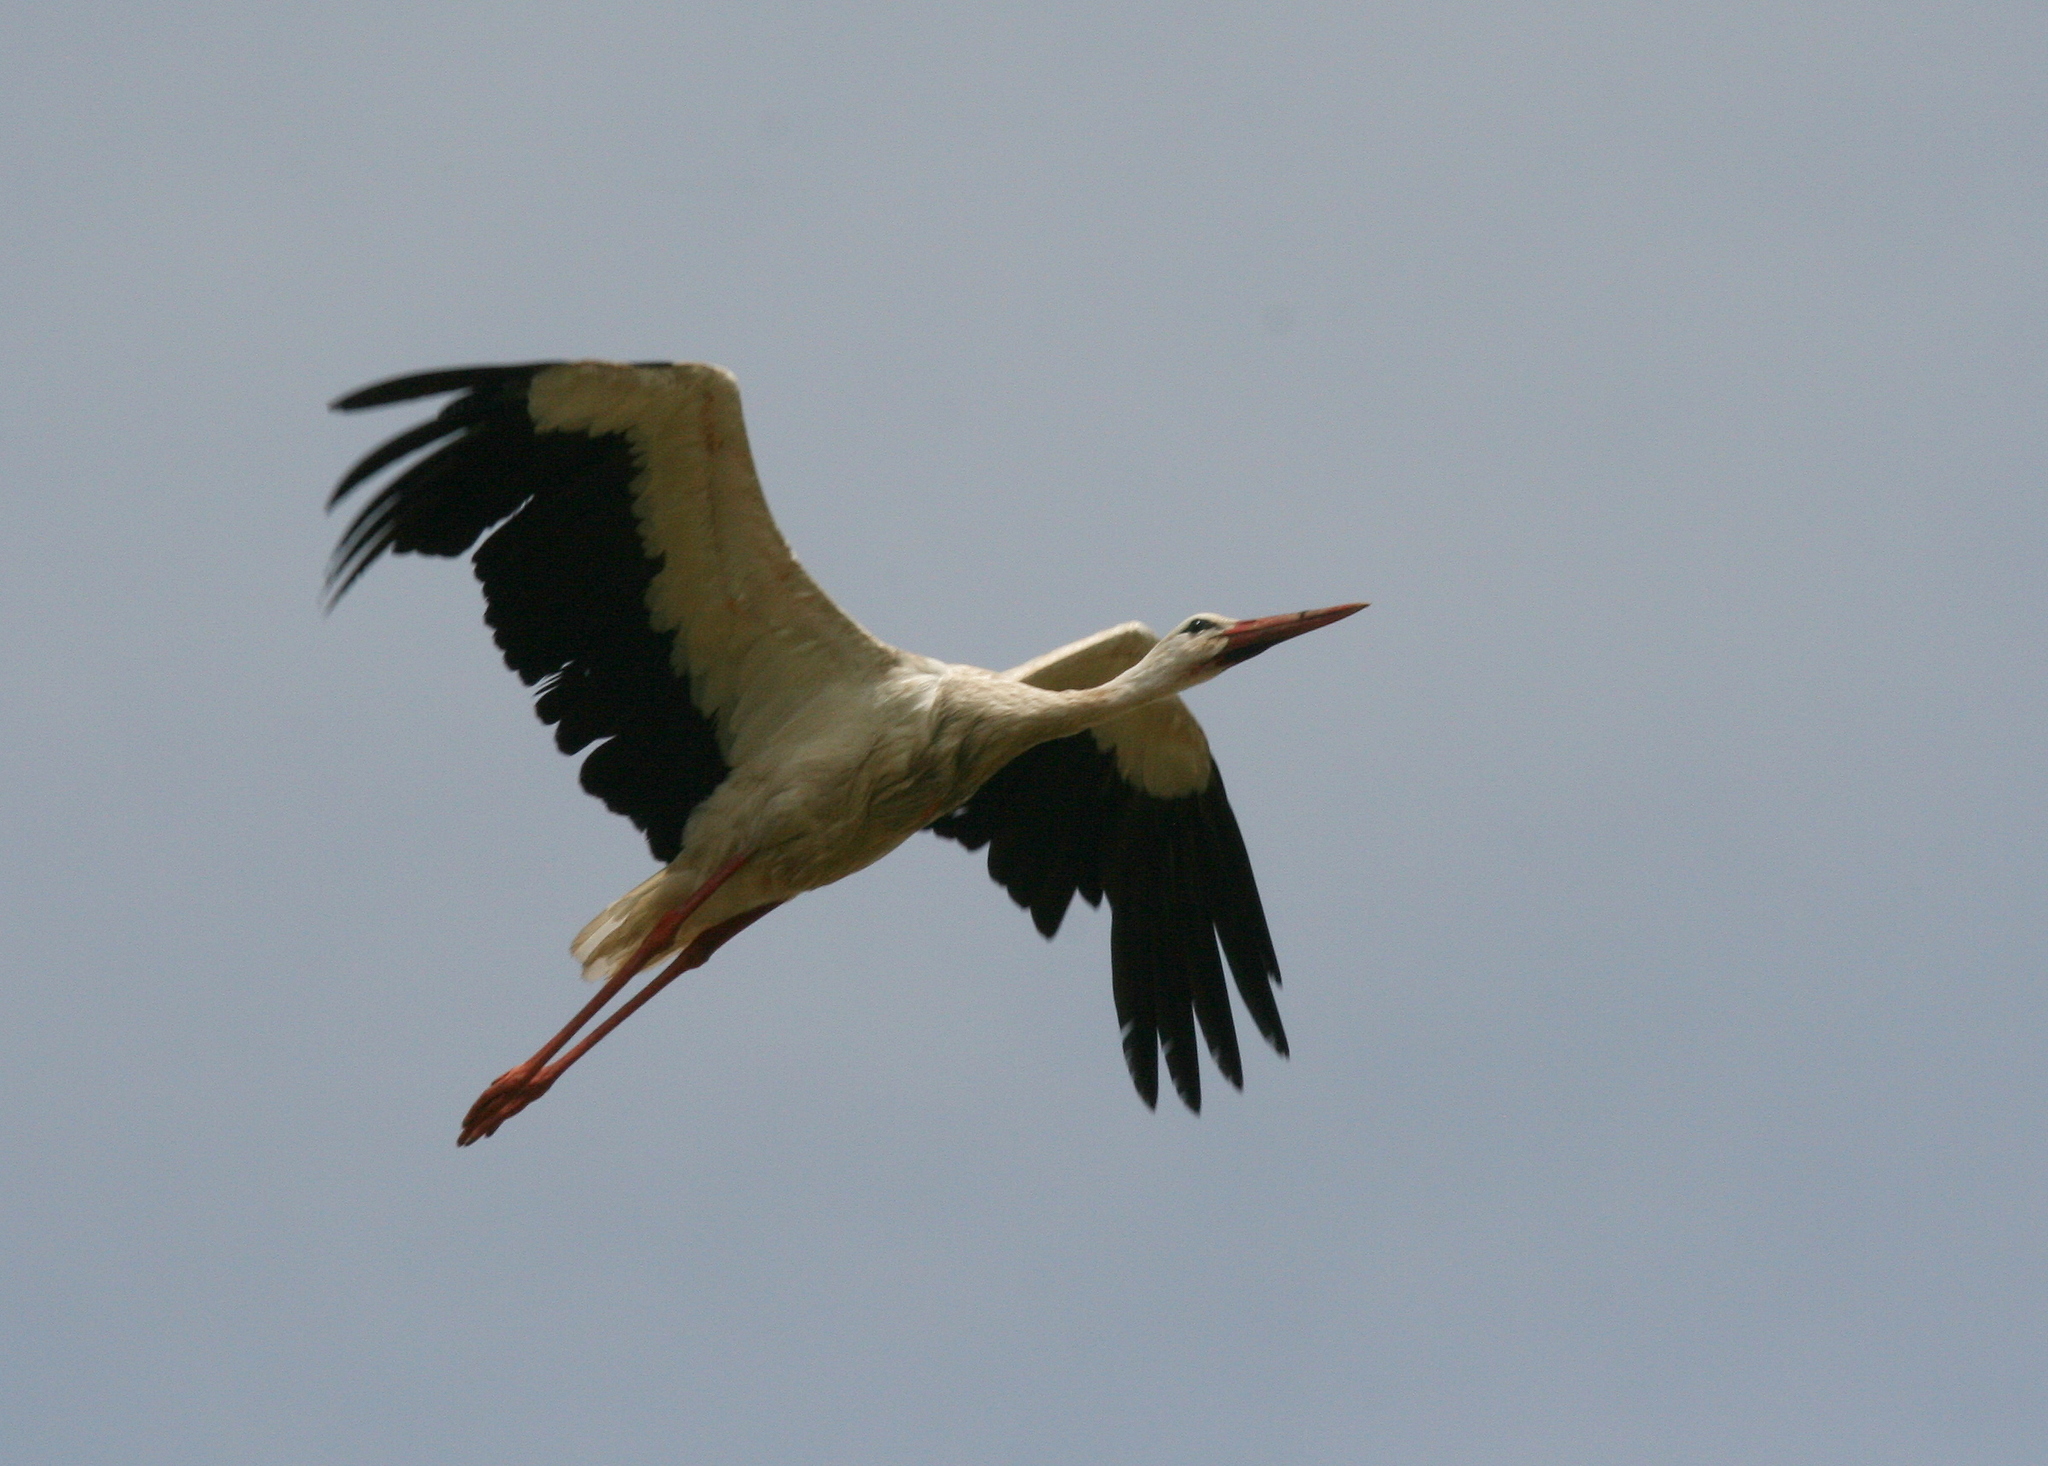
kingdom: Animalia
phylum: Chordata
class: Aves
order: Ciconiiformes
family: Ciconiidae
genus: Ciconia
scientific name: Ciconia ciconia
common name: White stork
